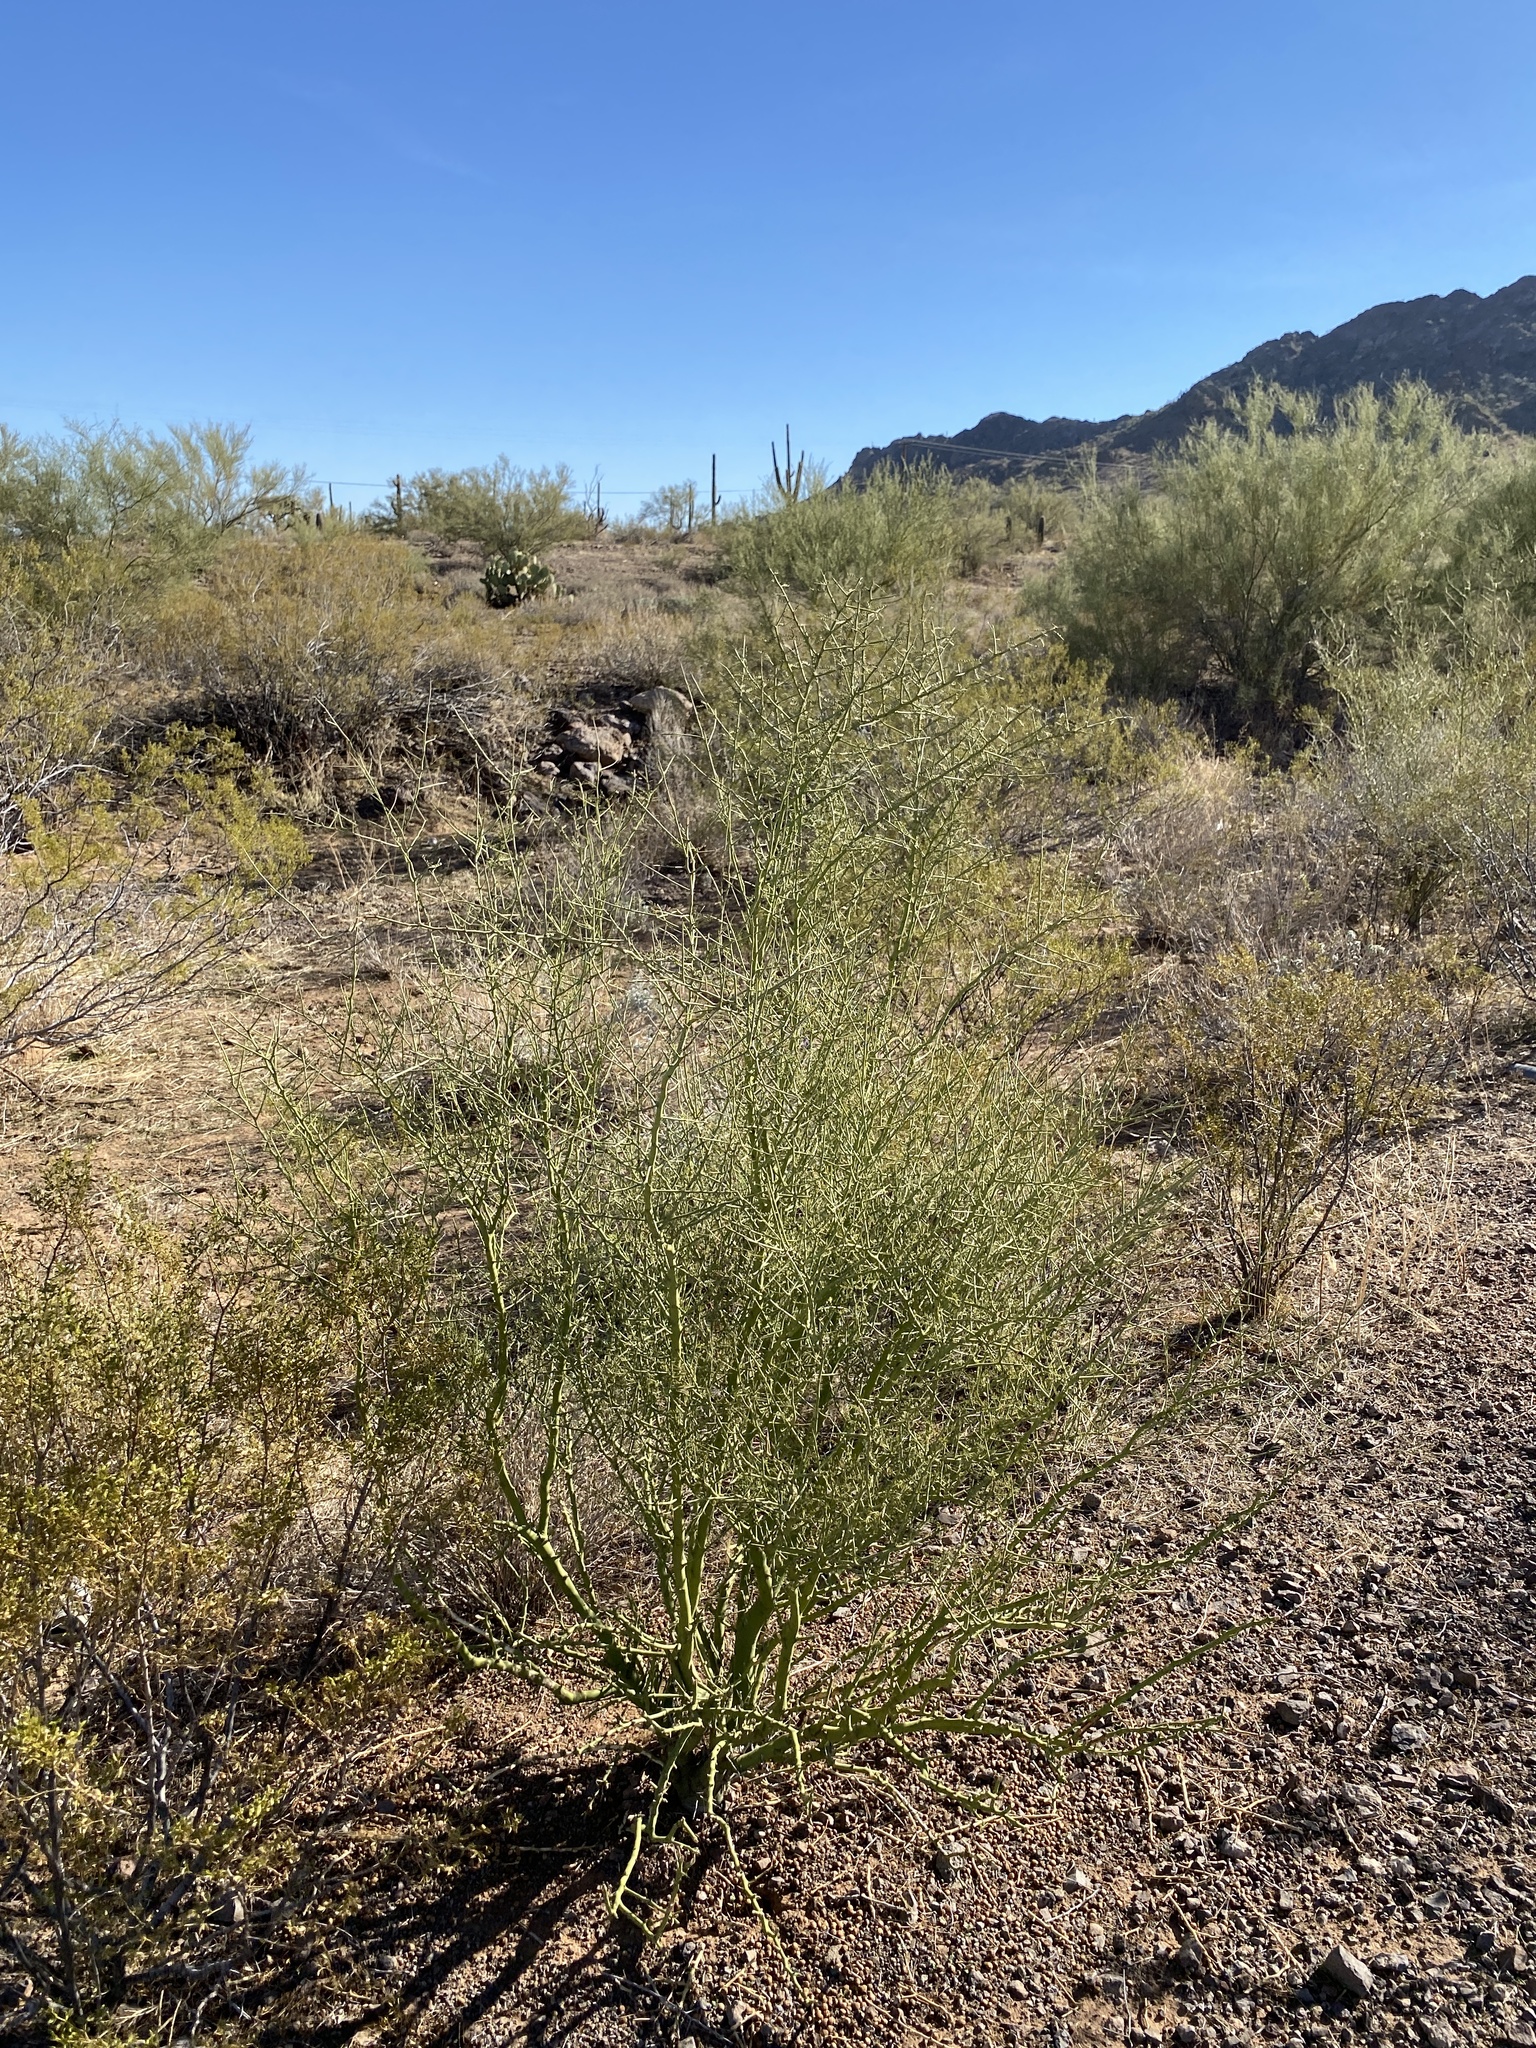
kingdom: Plantae
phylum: Tracheophyta
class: Magnoliopsida
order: Fabales
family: Fabaceae
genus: Parkinsonia
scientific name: Parkinsonia microphylla
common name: Yellow paloverde
